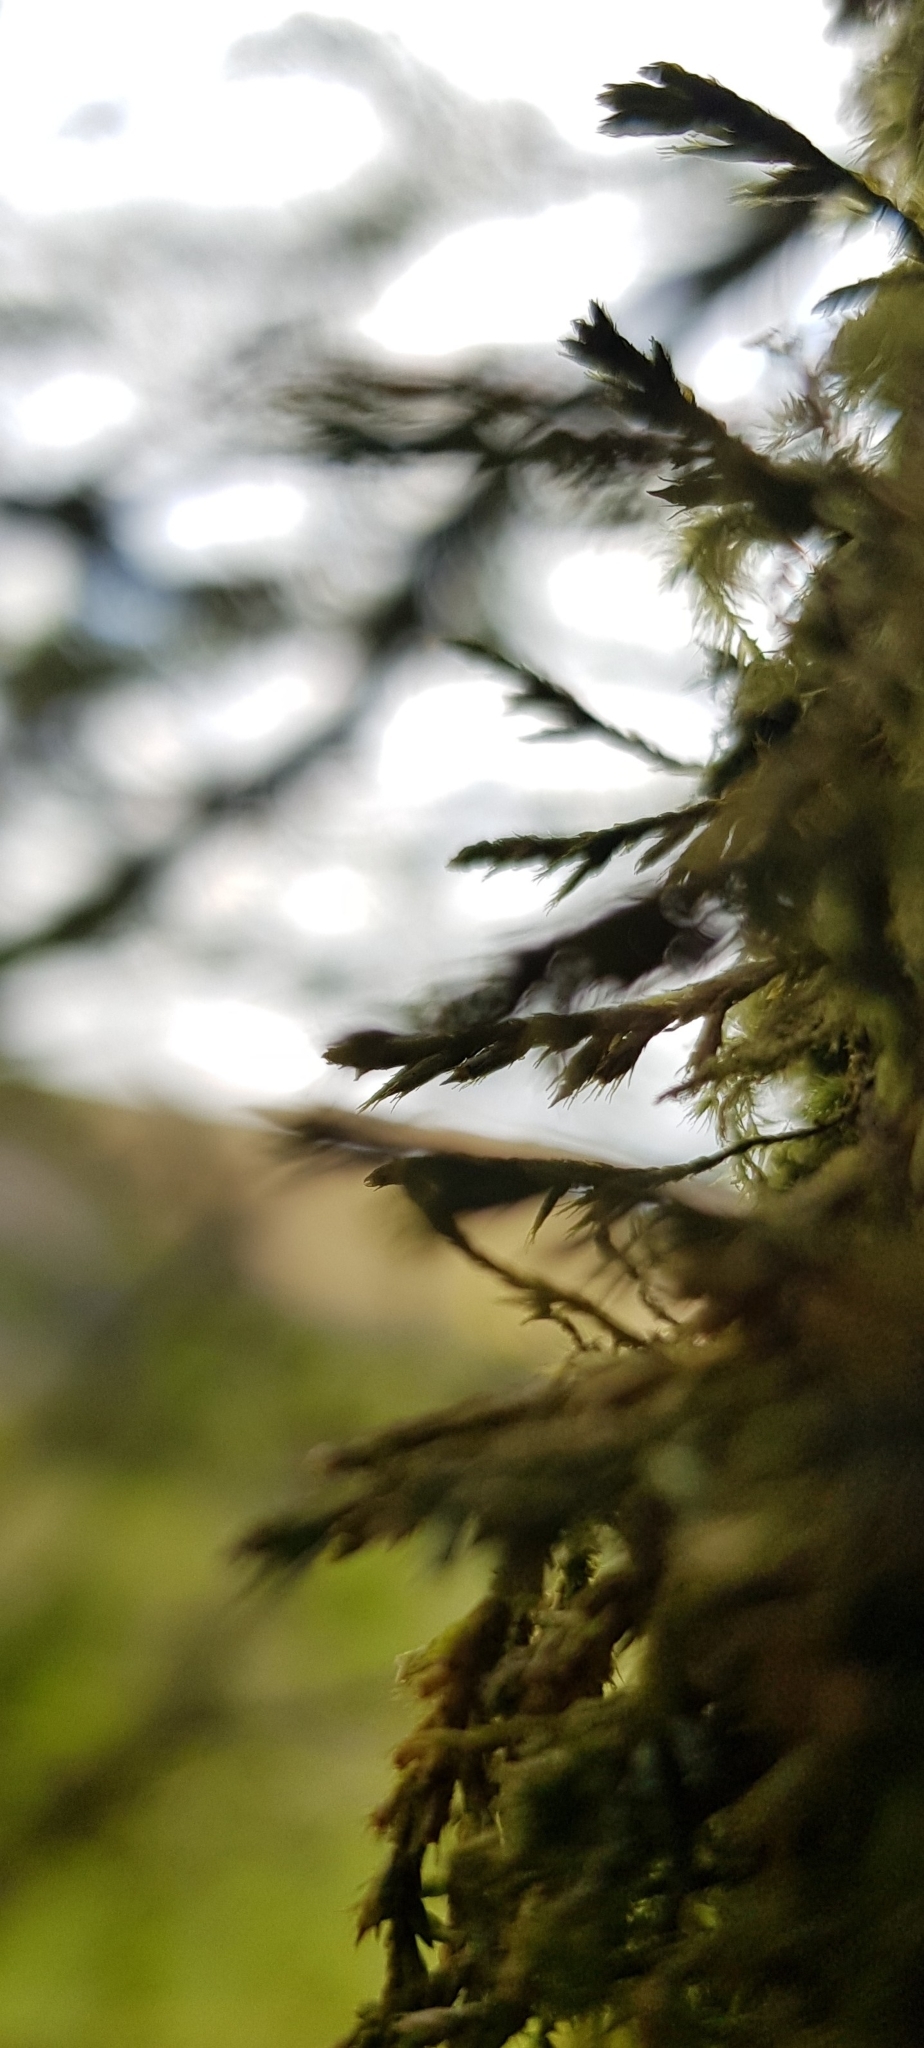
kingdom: Plantae
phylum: Bryophyta
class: Bryopsida
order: Hypnales
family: Cryphaeaceae
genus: Cryphaea
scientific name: Cryphaea heteromalla
